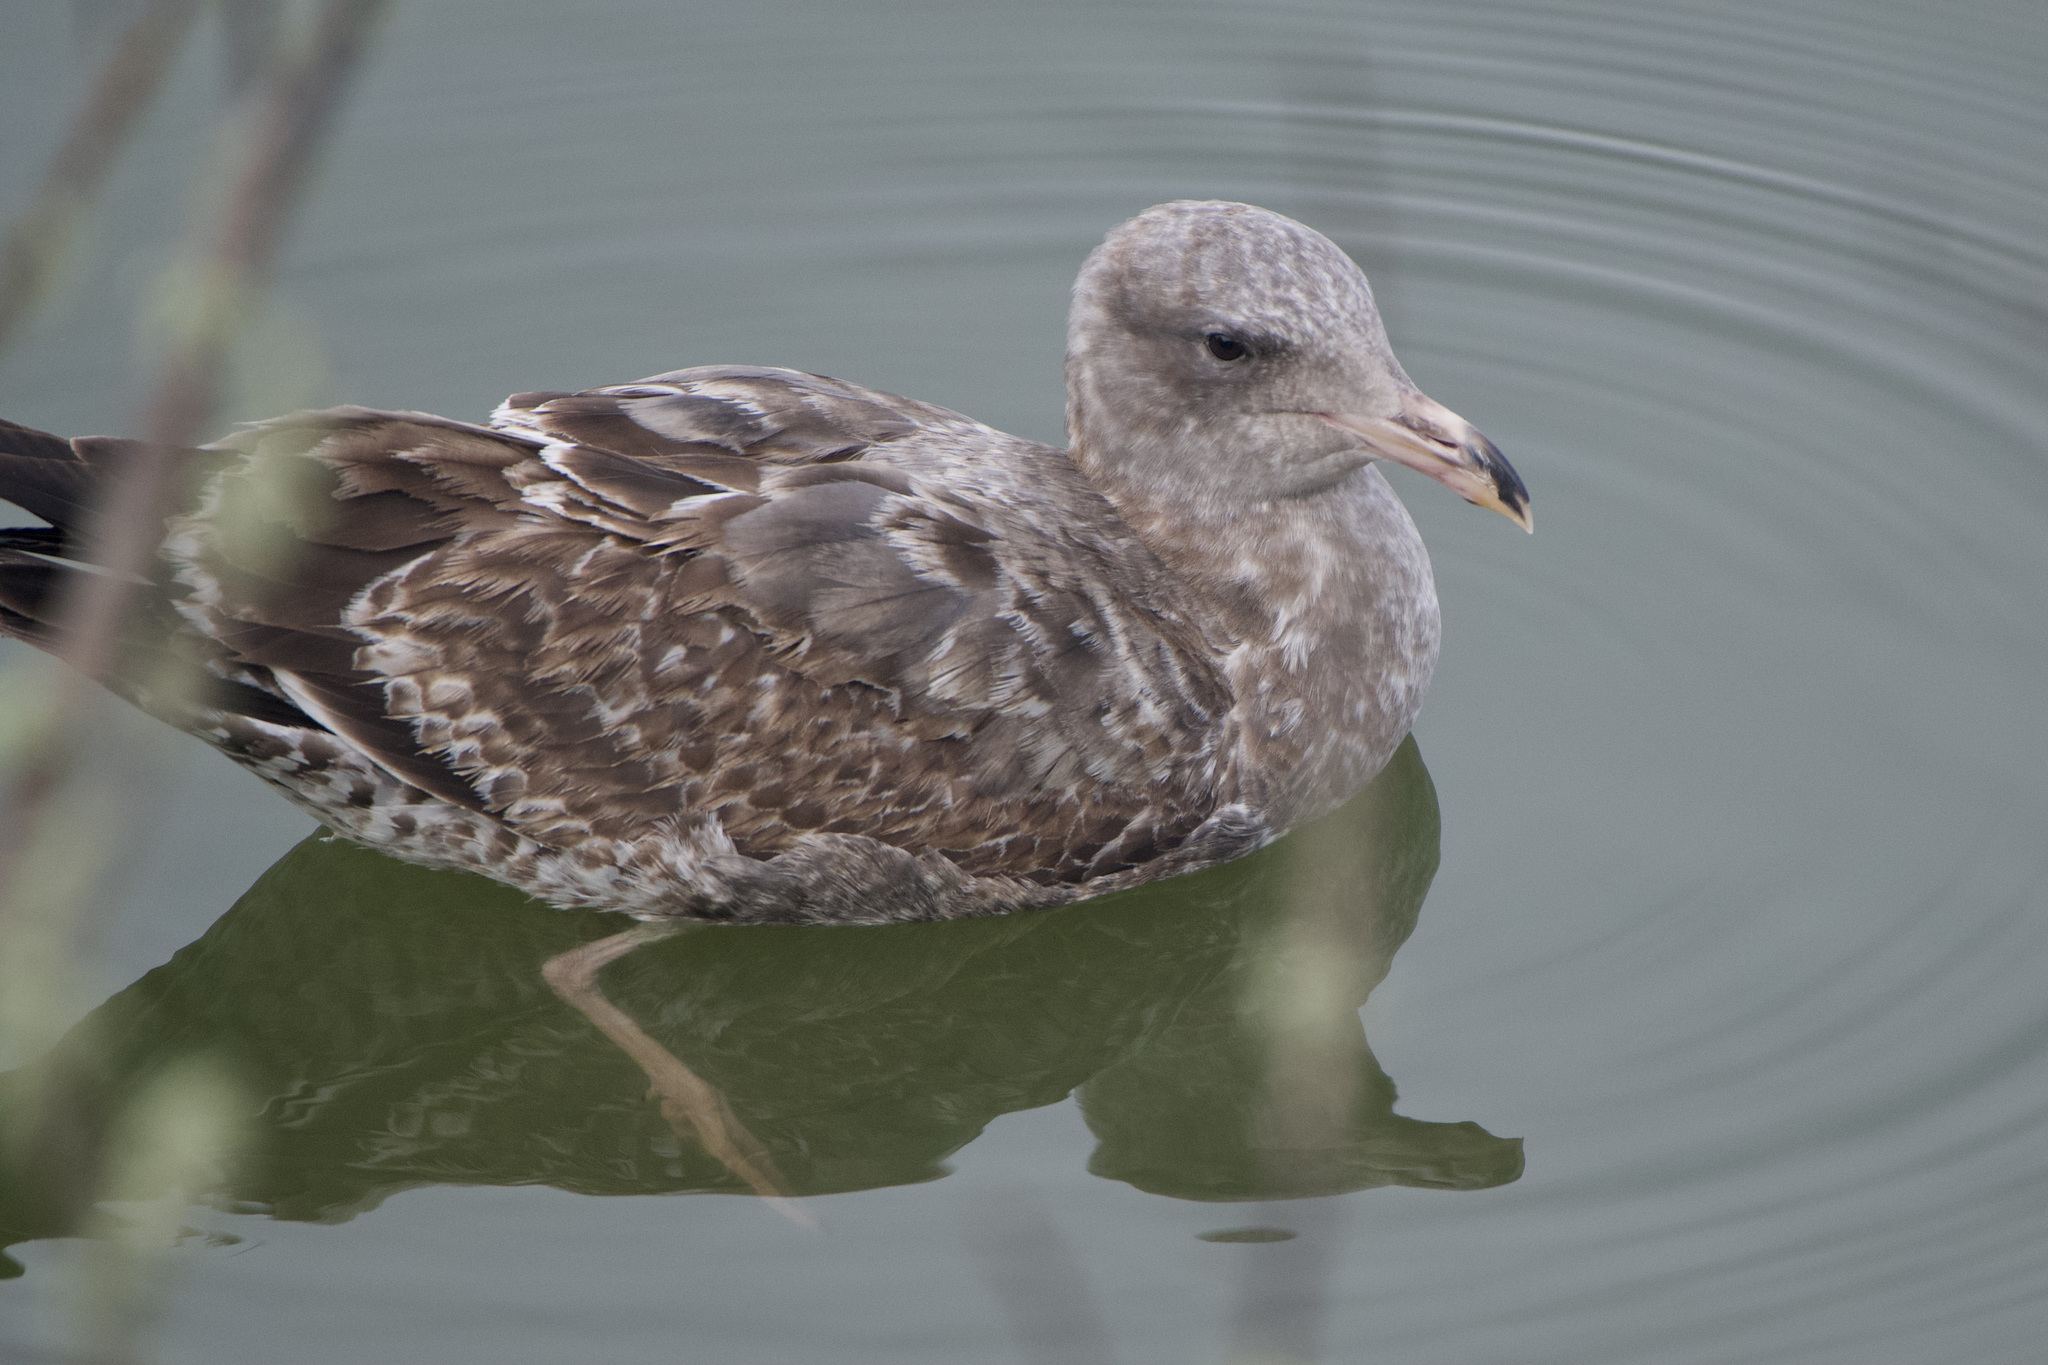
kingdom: Animalia
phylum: Chordata
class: Aves
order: Charadriiformes
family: Laridae
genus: Larus
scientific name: Larus occidentalis
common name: Western gull
